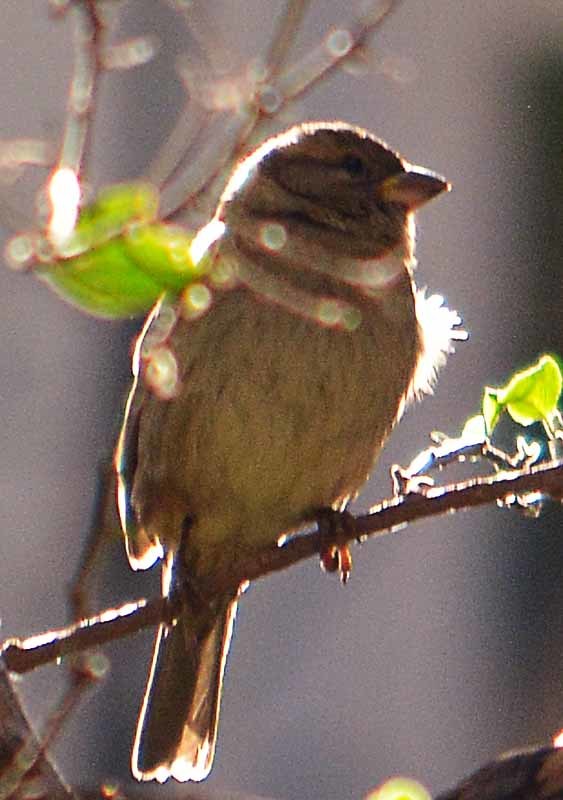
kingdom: Animalia
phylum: Chordata
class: Aves
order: Passeriformes
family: Passeridae
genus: Passer
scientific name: Passer domesticus
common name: House sparrow
